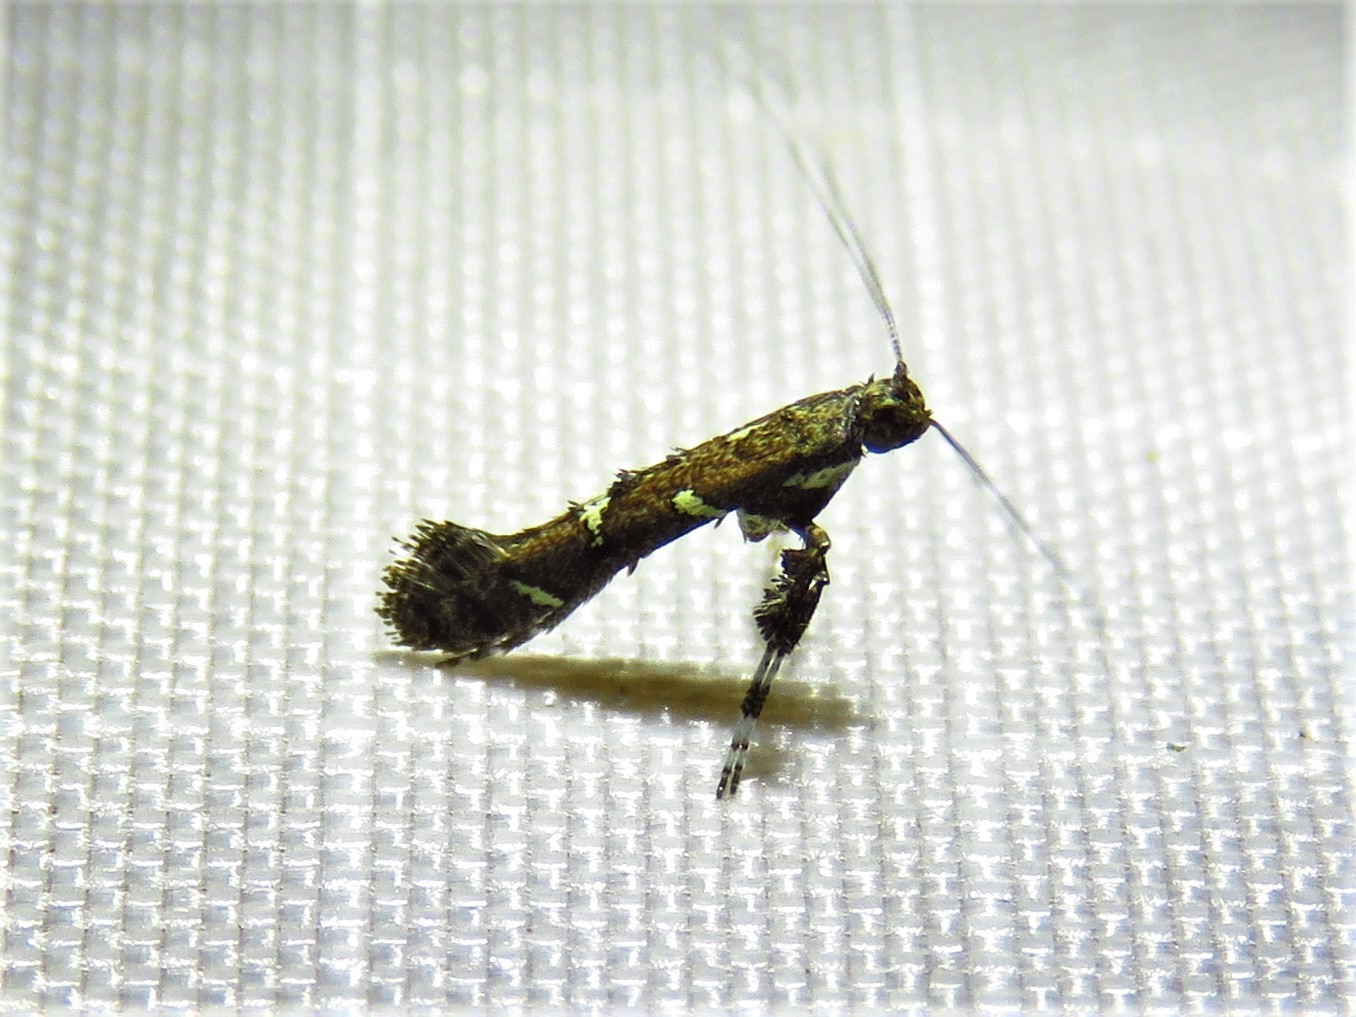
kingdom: Animalia
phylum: Arthropoda
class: Insecta
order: Lepidoptera
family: Gracillariidae
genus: Caloptilia
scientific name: Caloptilia triadicae
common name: Tallow leaf roller
